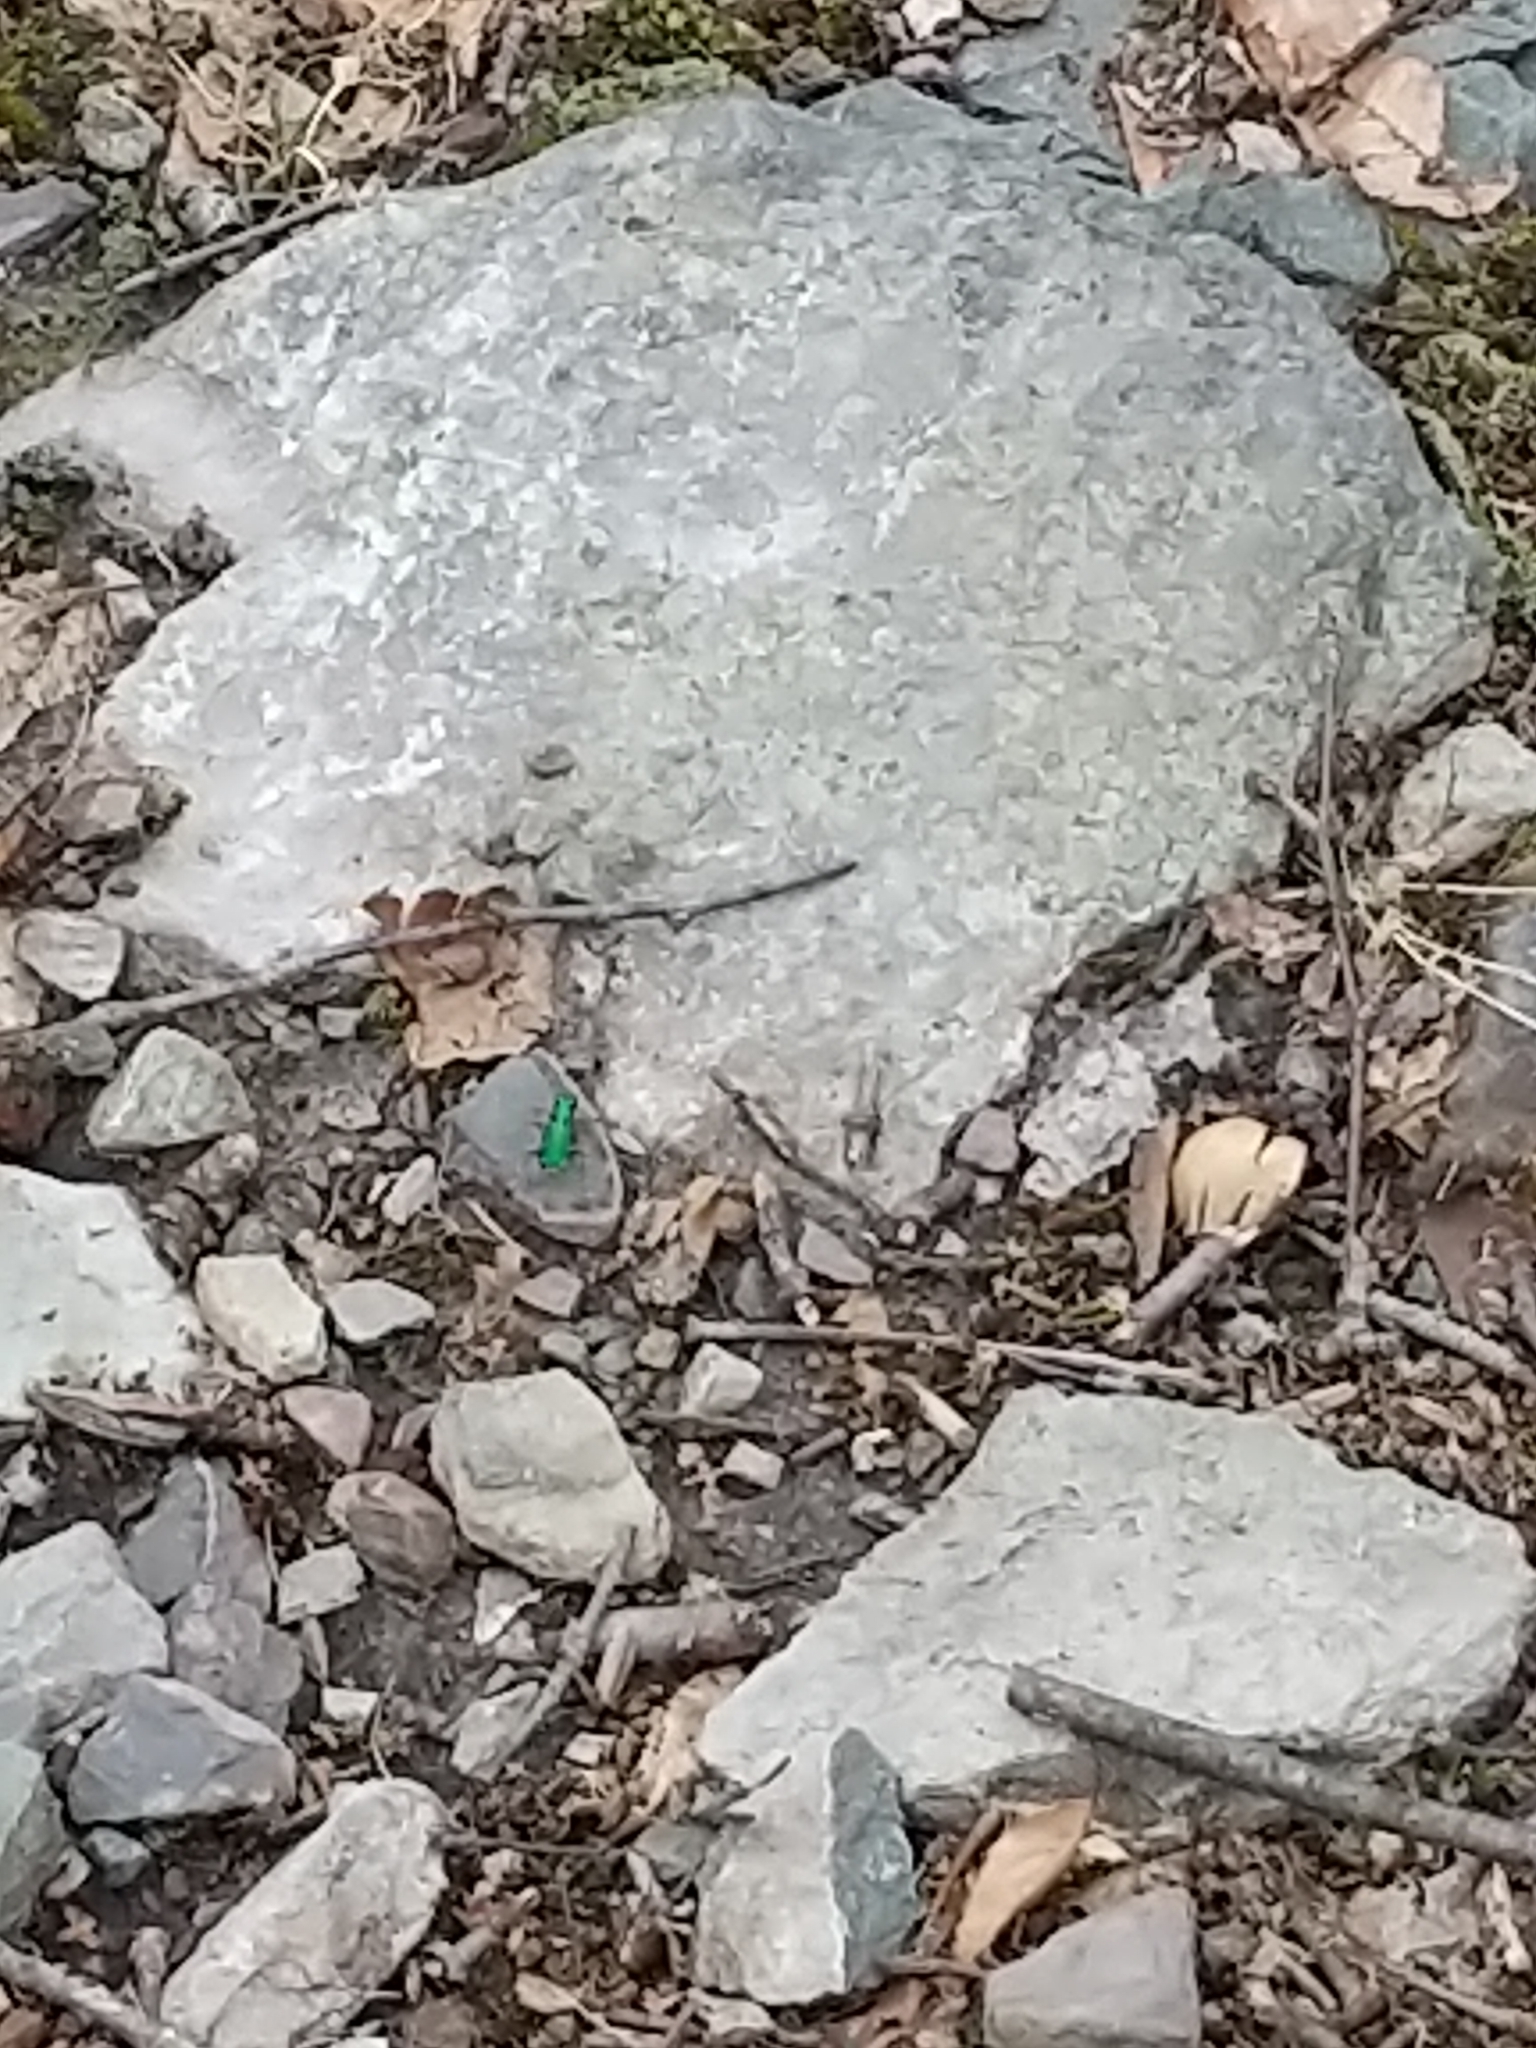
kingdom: Animalia
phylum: Arthropoda
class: Insecta
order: Coleoptera
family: Carabidae
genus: Cicindela
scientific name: Cicindela sexguttata
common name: Six-spotted tiger beetle
